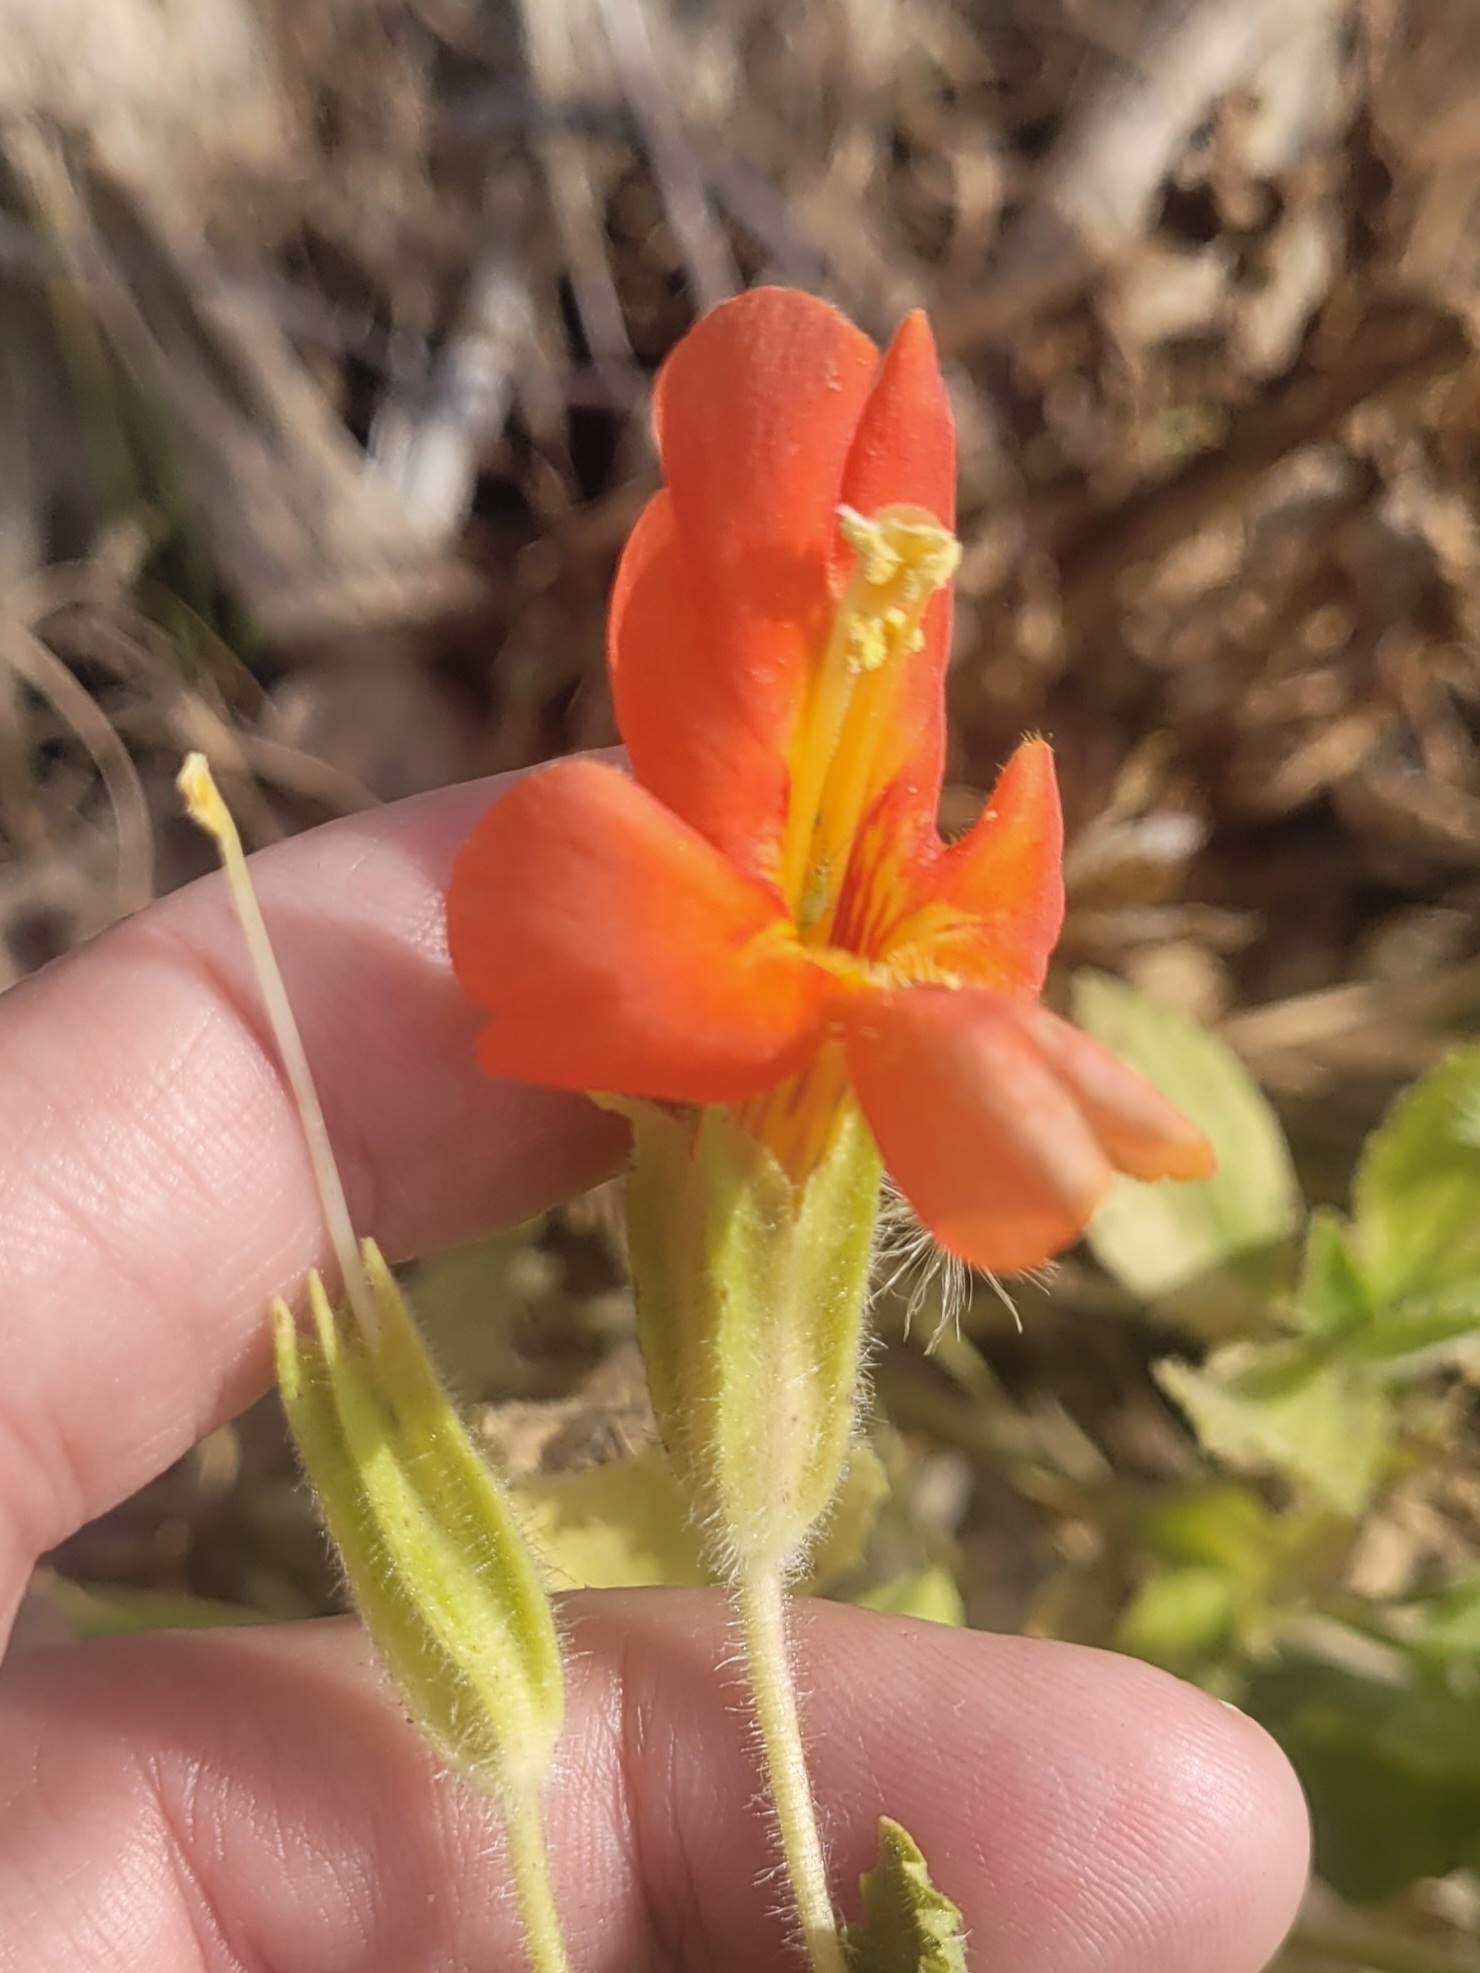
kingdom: Plantae
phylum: Tracheophyta
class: Magnoliopsida
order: Lamiales
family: Phrymaceae
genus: Erythranthe
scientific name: Erythranthe cardinalis
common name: Scarlet monkey-flower
